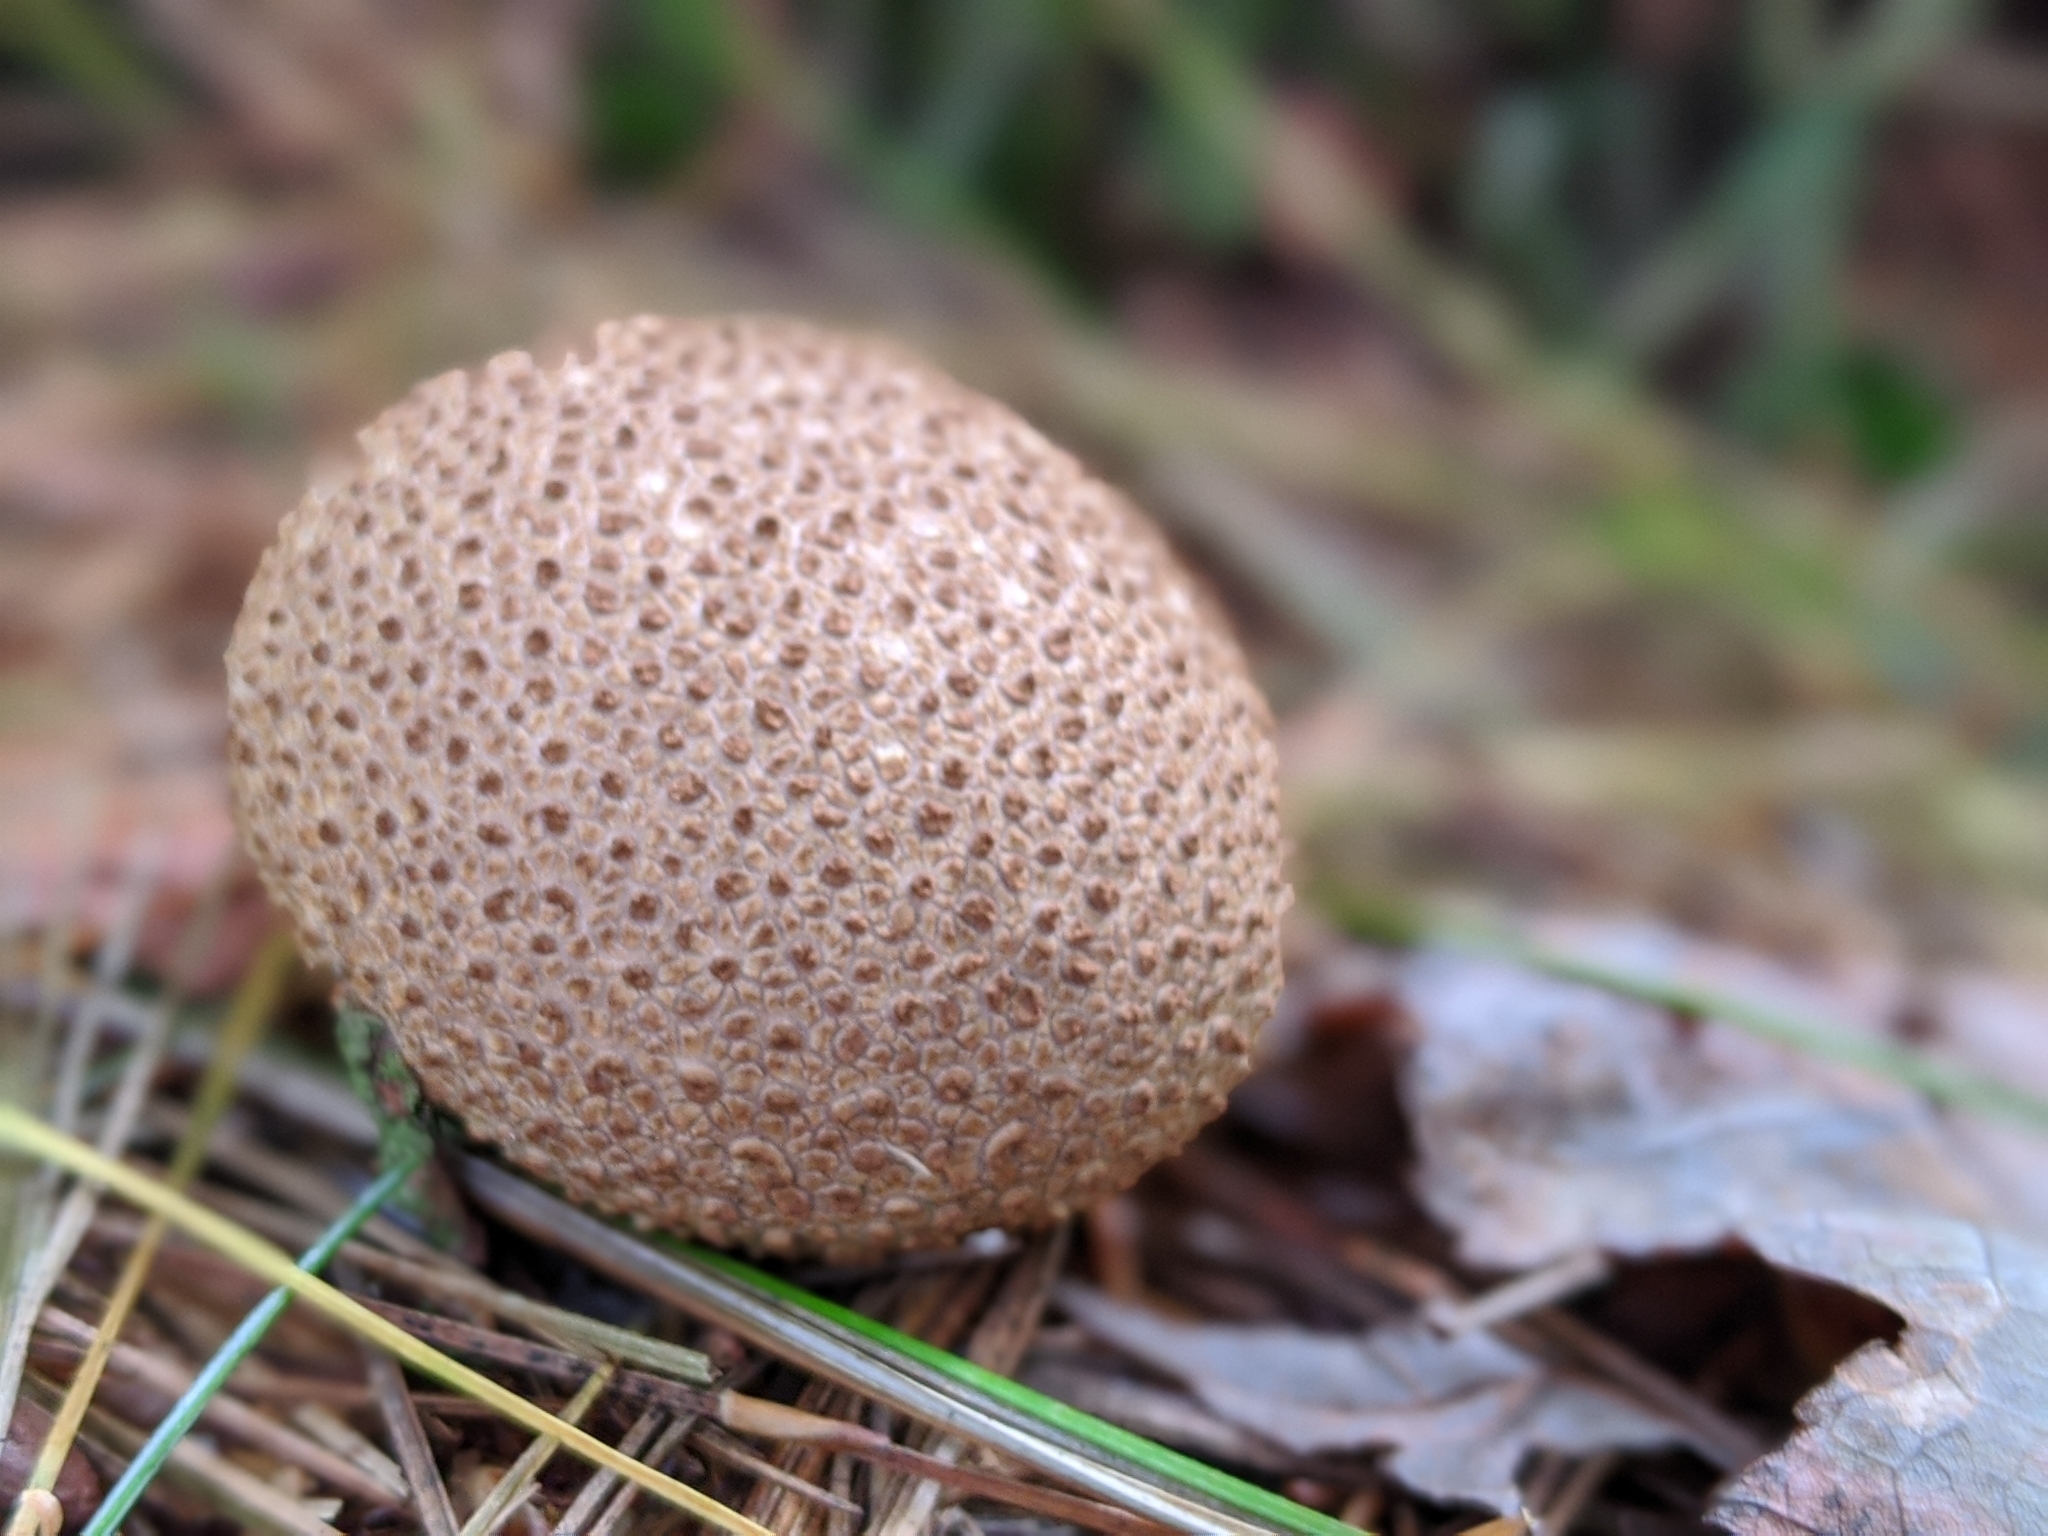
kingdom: Fungi
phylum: Basidiomycota
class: Agaricomycetes
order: Boletales
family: Sclerodermataceae
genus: Scleroderma
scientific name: Scleroderma citrinum
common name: Common earthball
